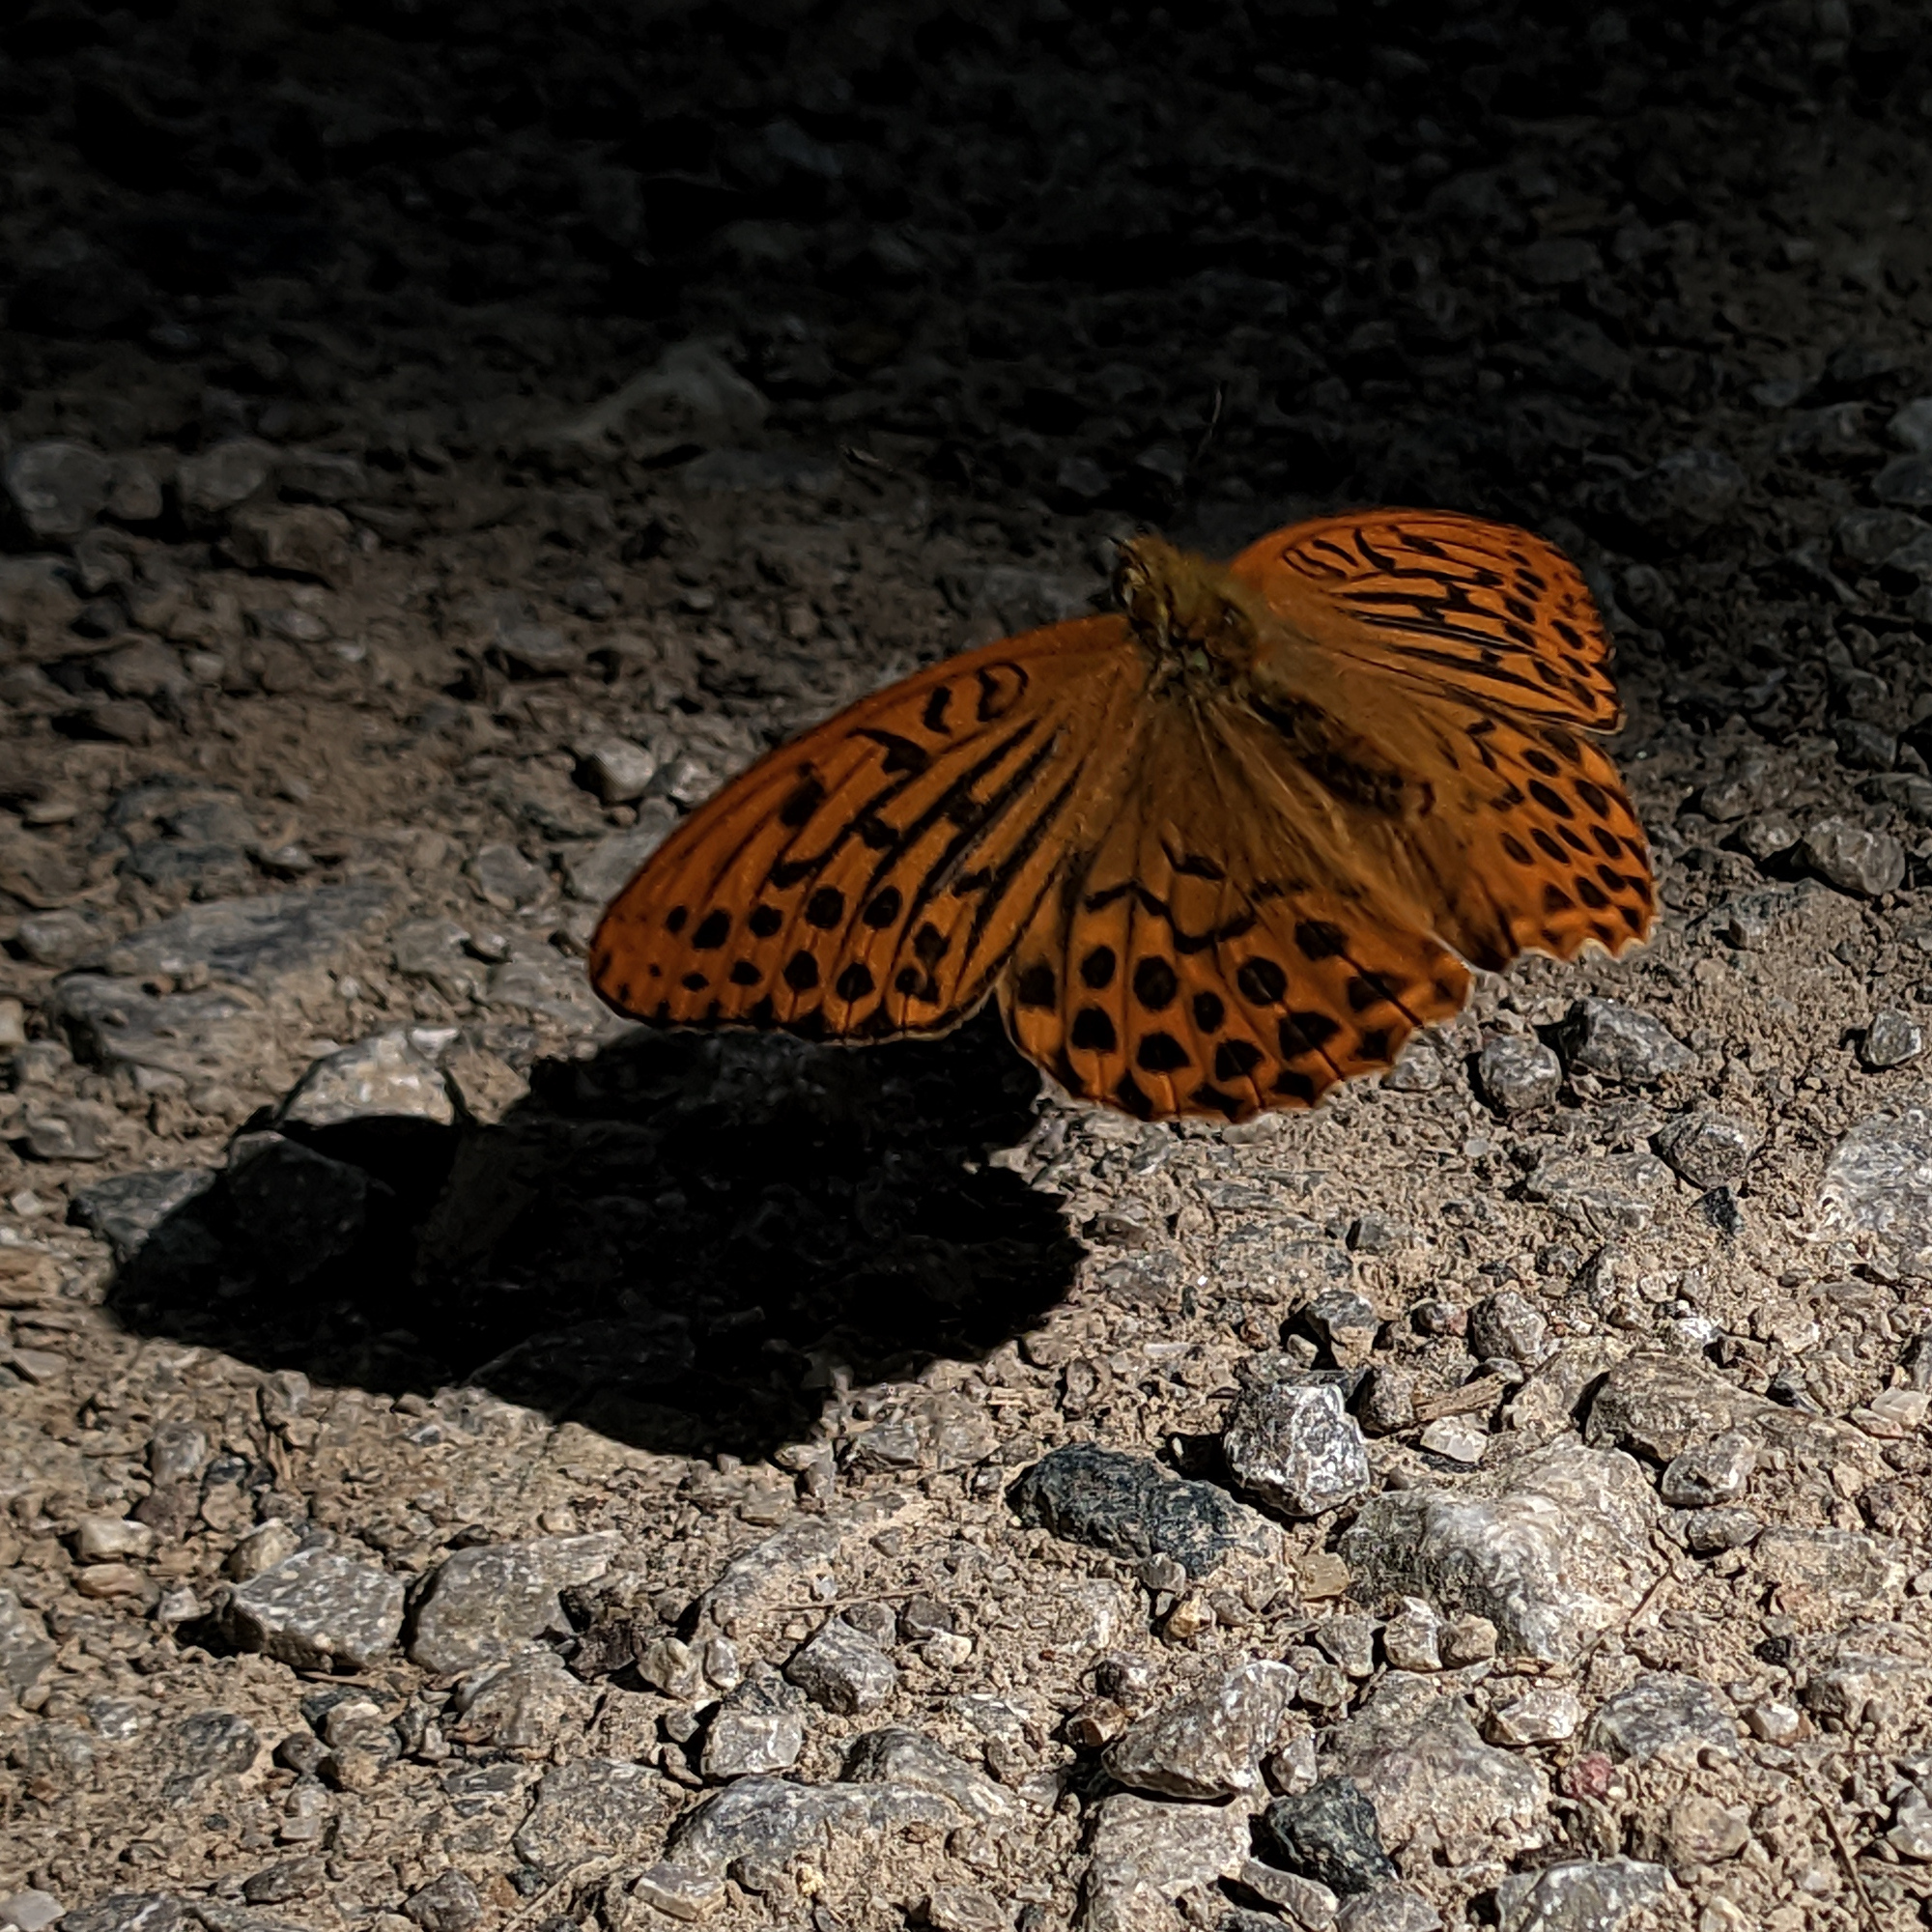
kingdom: Animalia
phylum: Arthropoda
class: Insecta
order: Lepidoptera
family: Nymphalidae
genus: Argynnis
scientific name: Argynnis paphia
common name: Silver-washed fritillary
